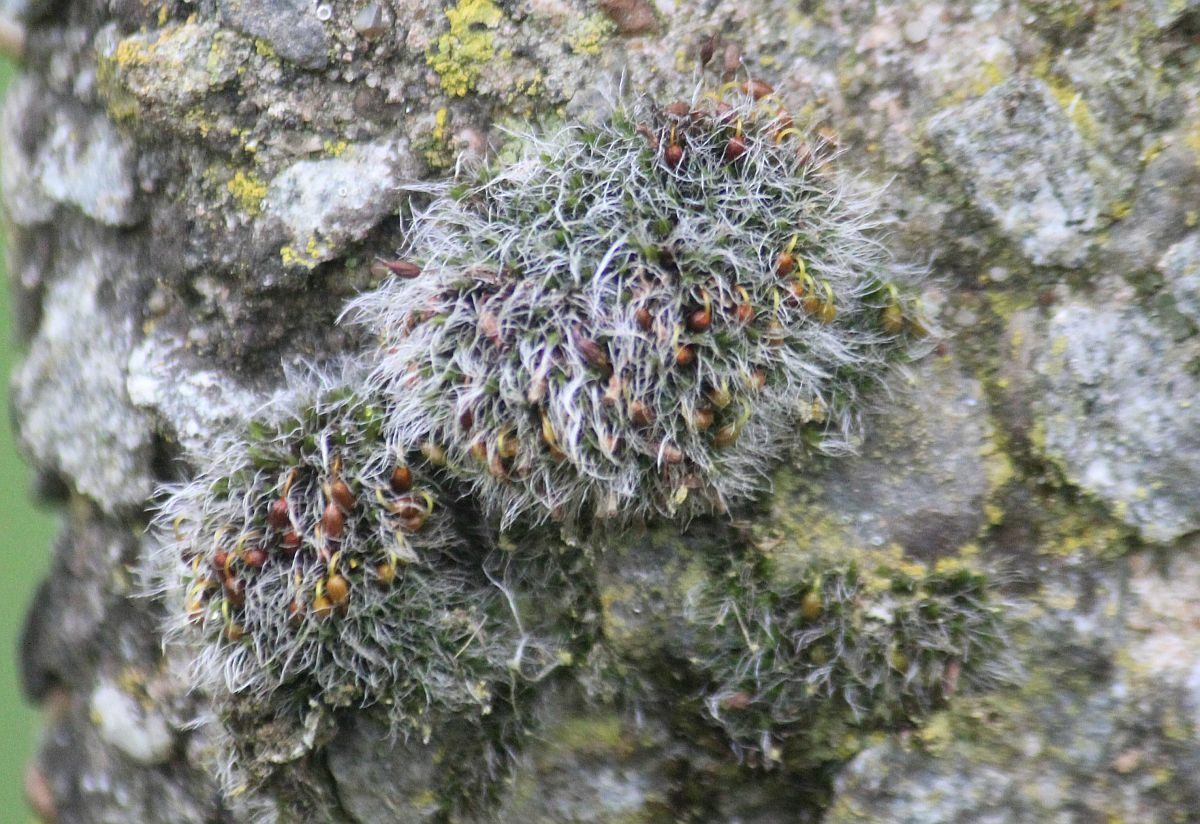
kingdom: Plantae
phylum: Bryophyta
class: Bryopsida
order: Grimmiales
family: Grimmiaceae
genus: Grimmia
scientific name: Grimmia pulvinata
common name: Grey-cushioned grimmia
